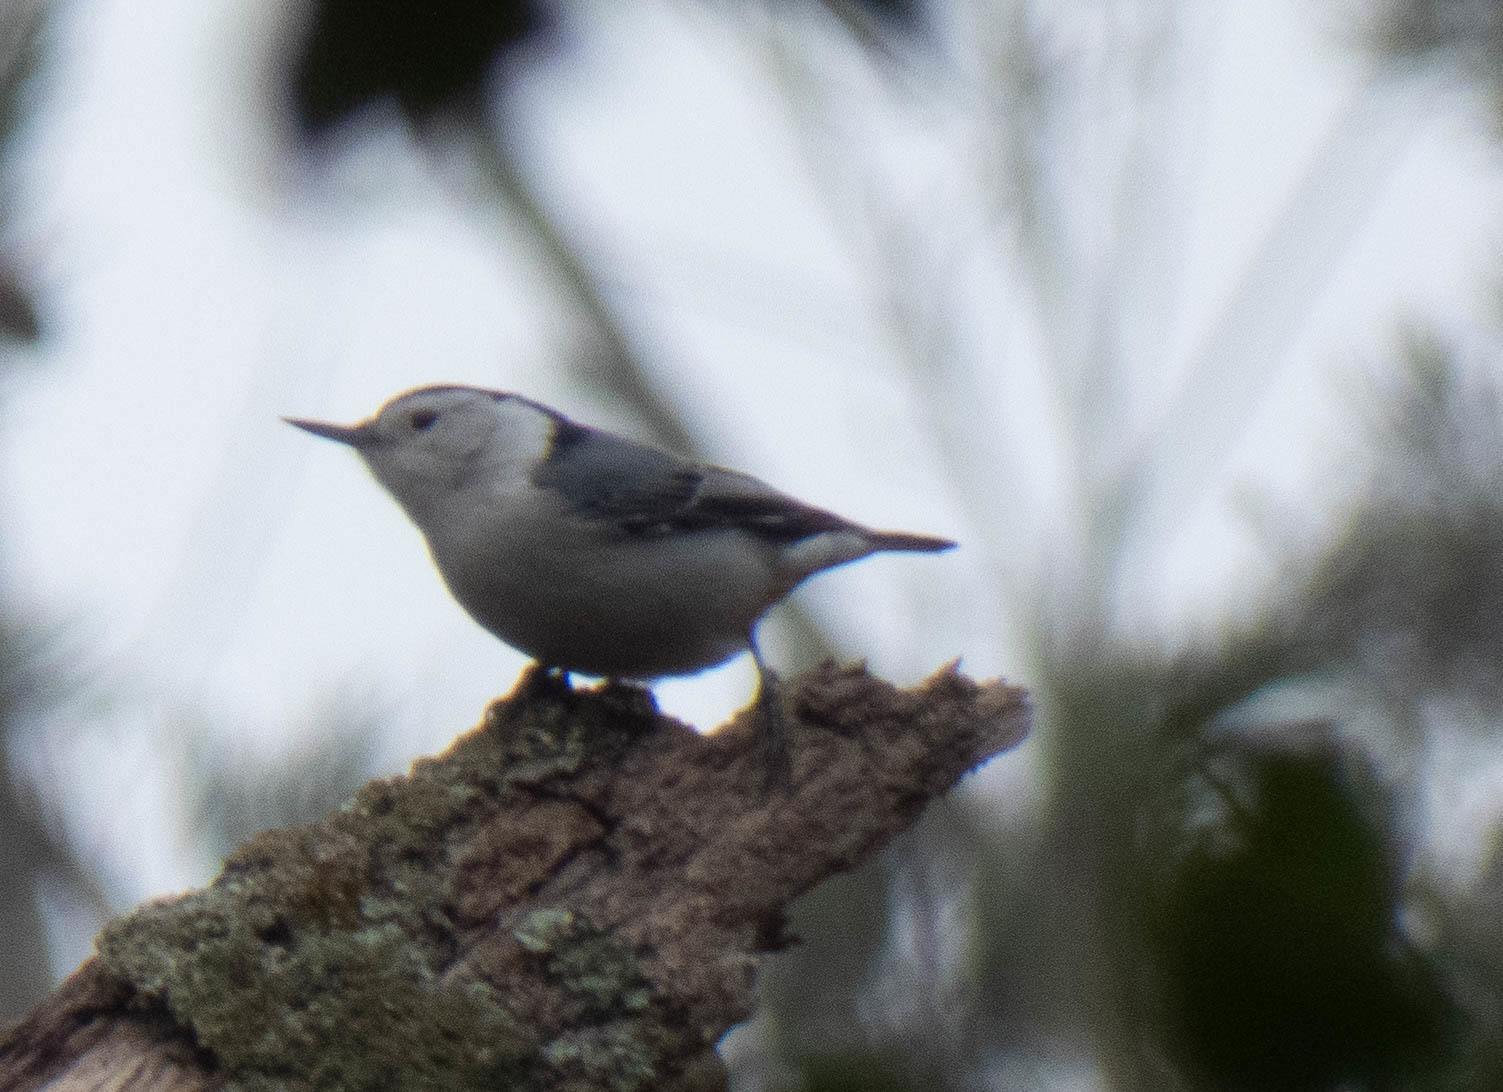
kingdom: Animalia
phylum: Chordata
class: Aves
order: Passeriformes
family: Sittidae
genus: Sitta
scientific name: Sitta carolinensis
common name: White-breasted nuthatch
